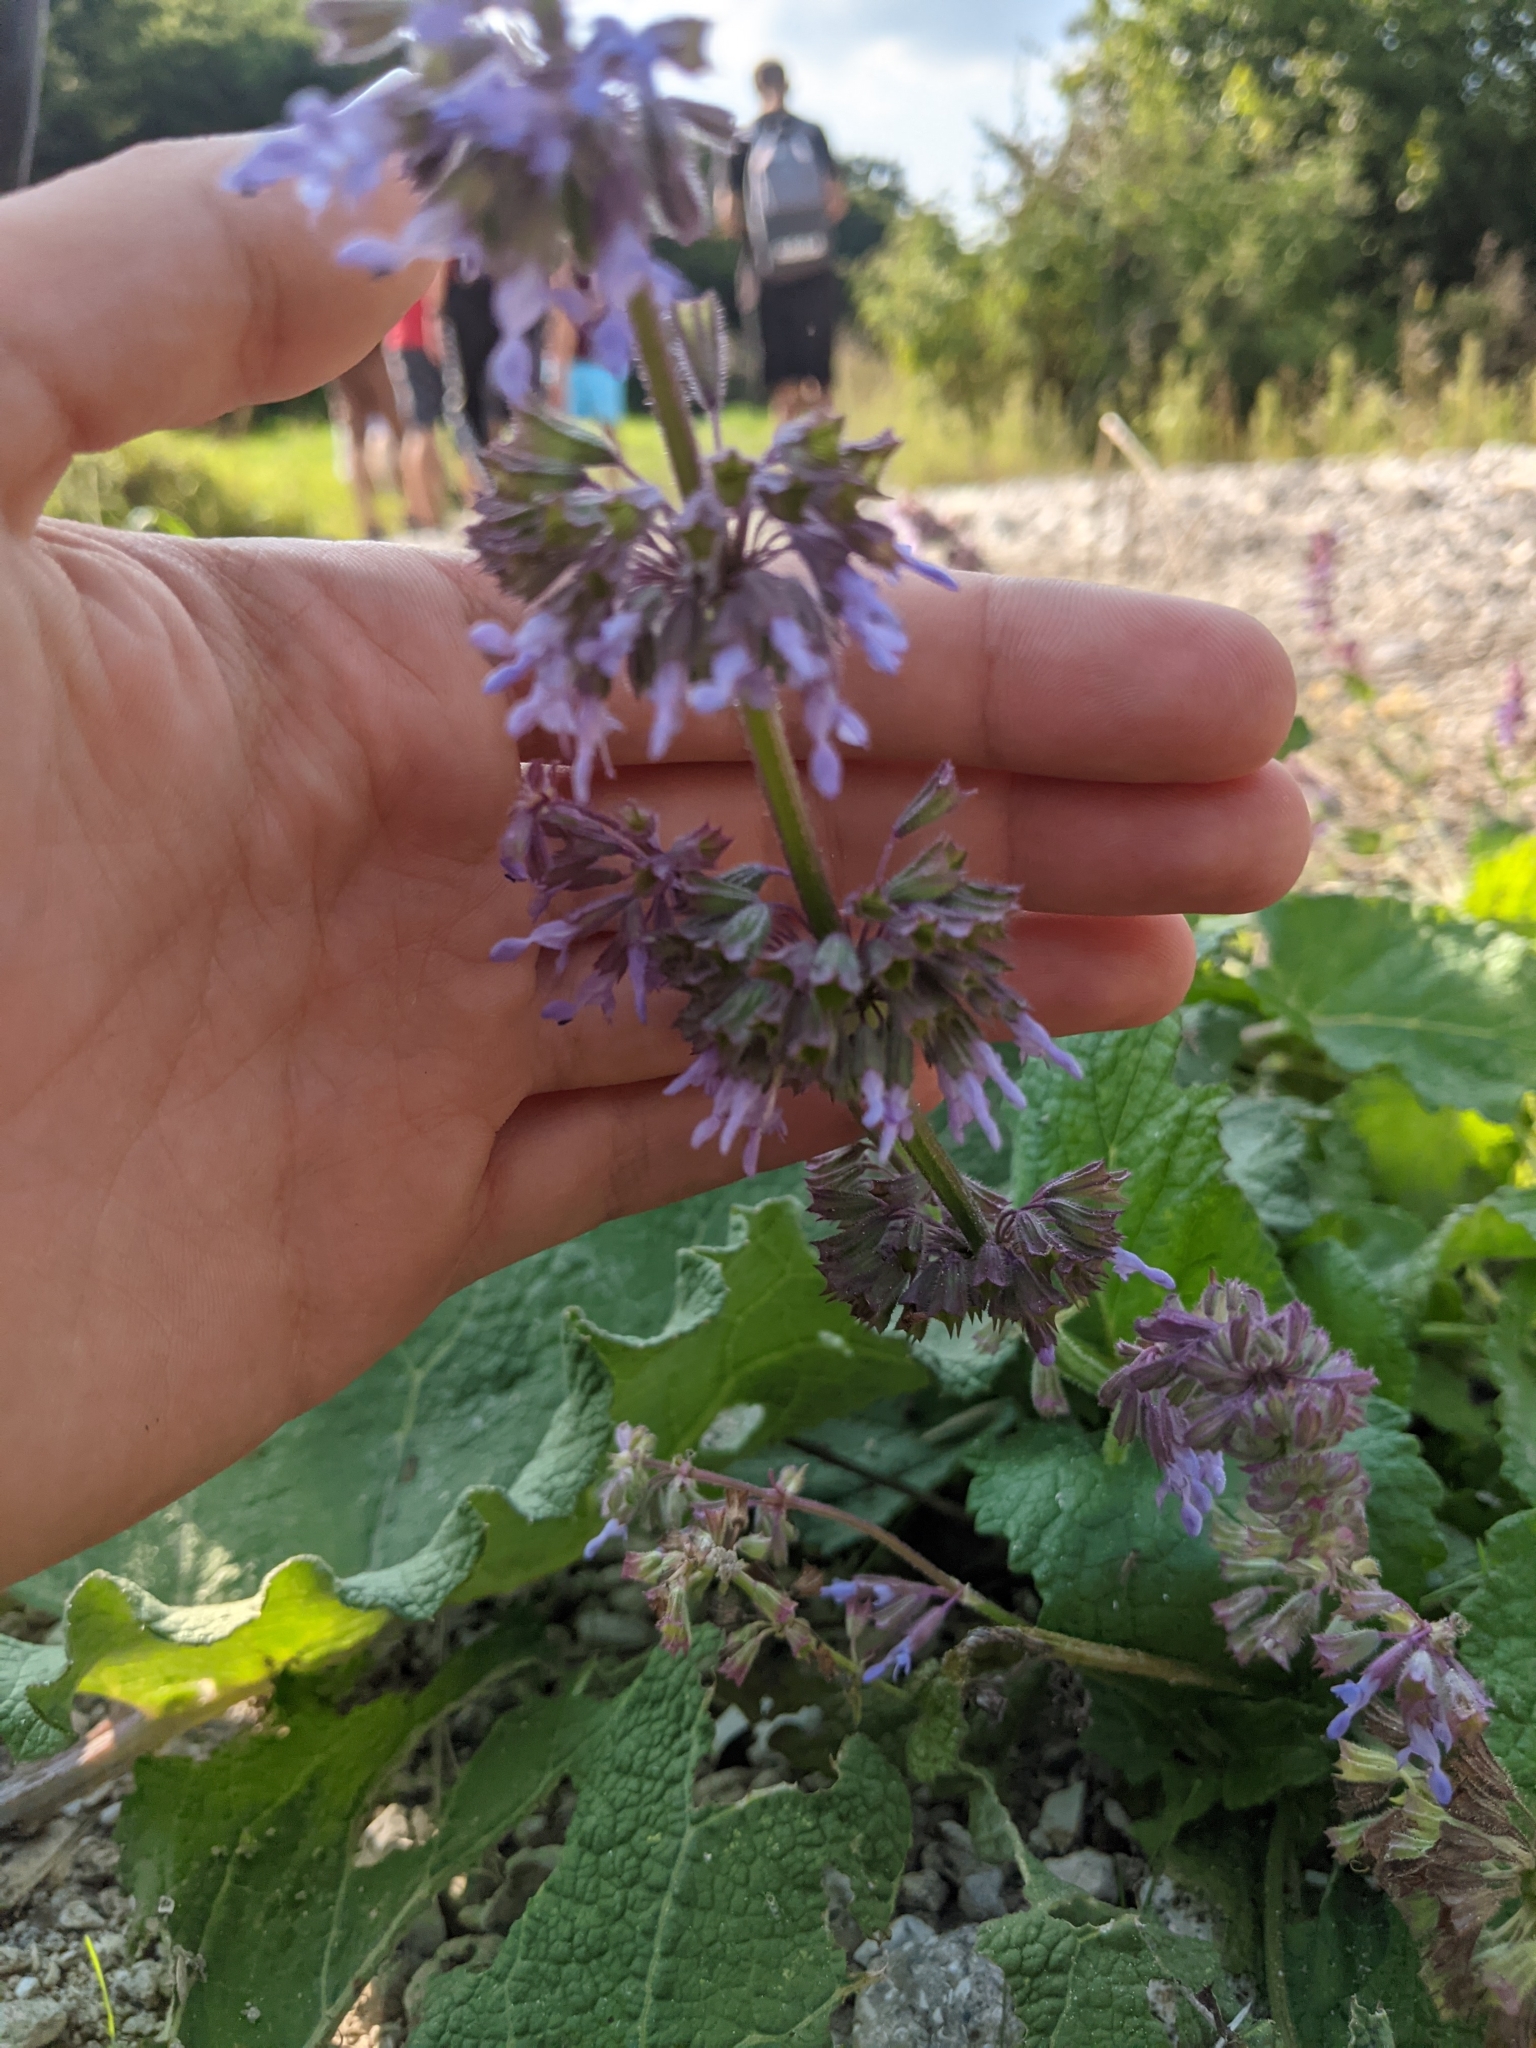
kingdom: Plantae
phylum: Tracheophyta
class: Magnoliopsida
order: Lamiales
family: Lamiaceae
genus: Salvia
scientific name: Salvia verticillata
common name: Whorled clary
